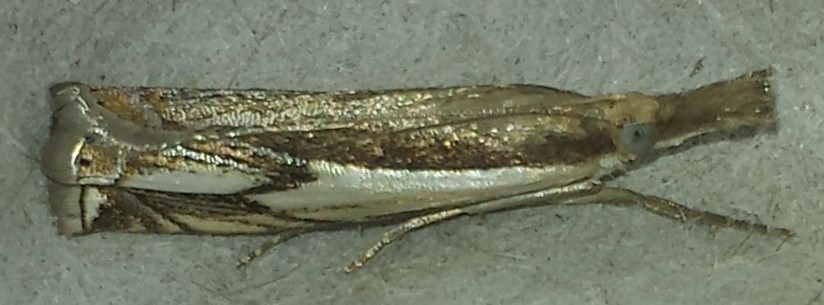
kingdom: Animalia
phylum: Arthropoda
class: Insecta
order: Lepidoptera
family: Crambidae
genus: Crambus
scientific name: Crambus agitatellus
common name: Double-banded grass-veneer
